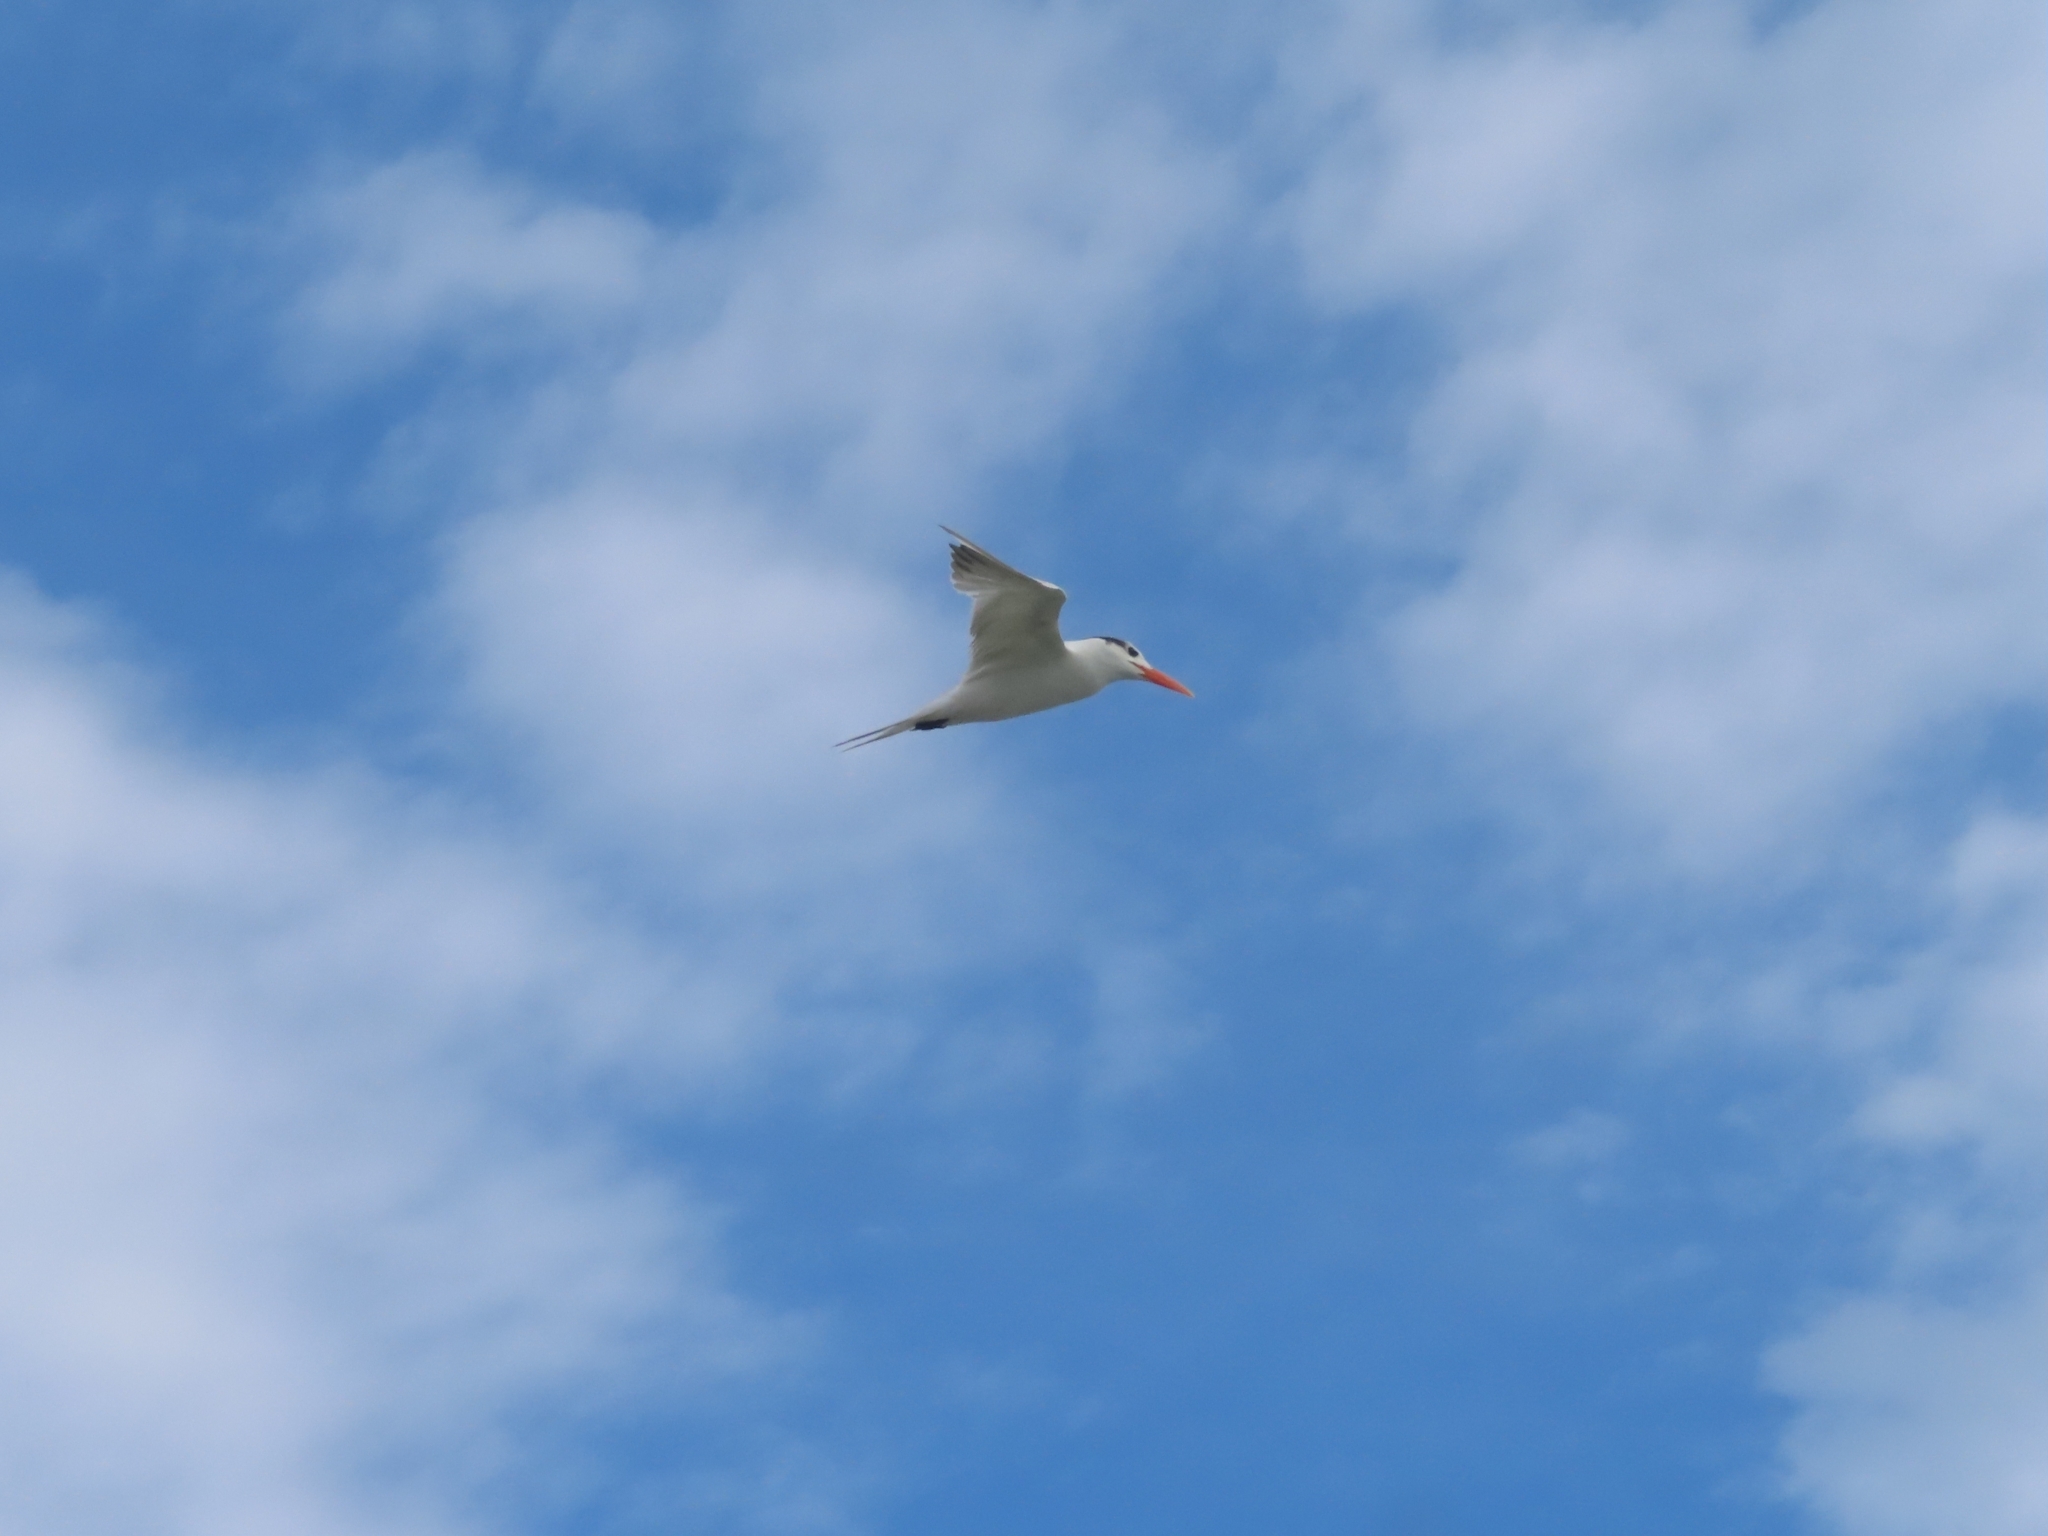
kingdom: Animalia
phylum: Chordata
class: Aves
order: Charadriiformes
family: Laridae
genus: Thalasseus
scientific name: Thalasseus maximus
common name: Royal tern
